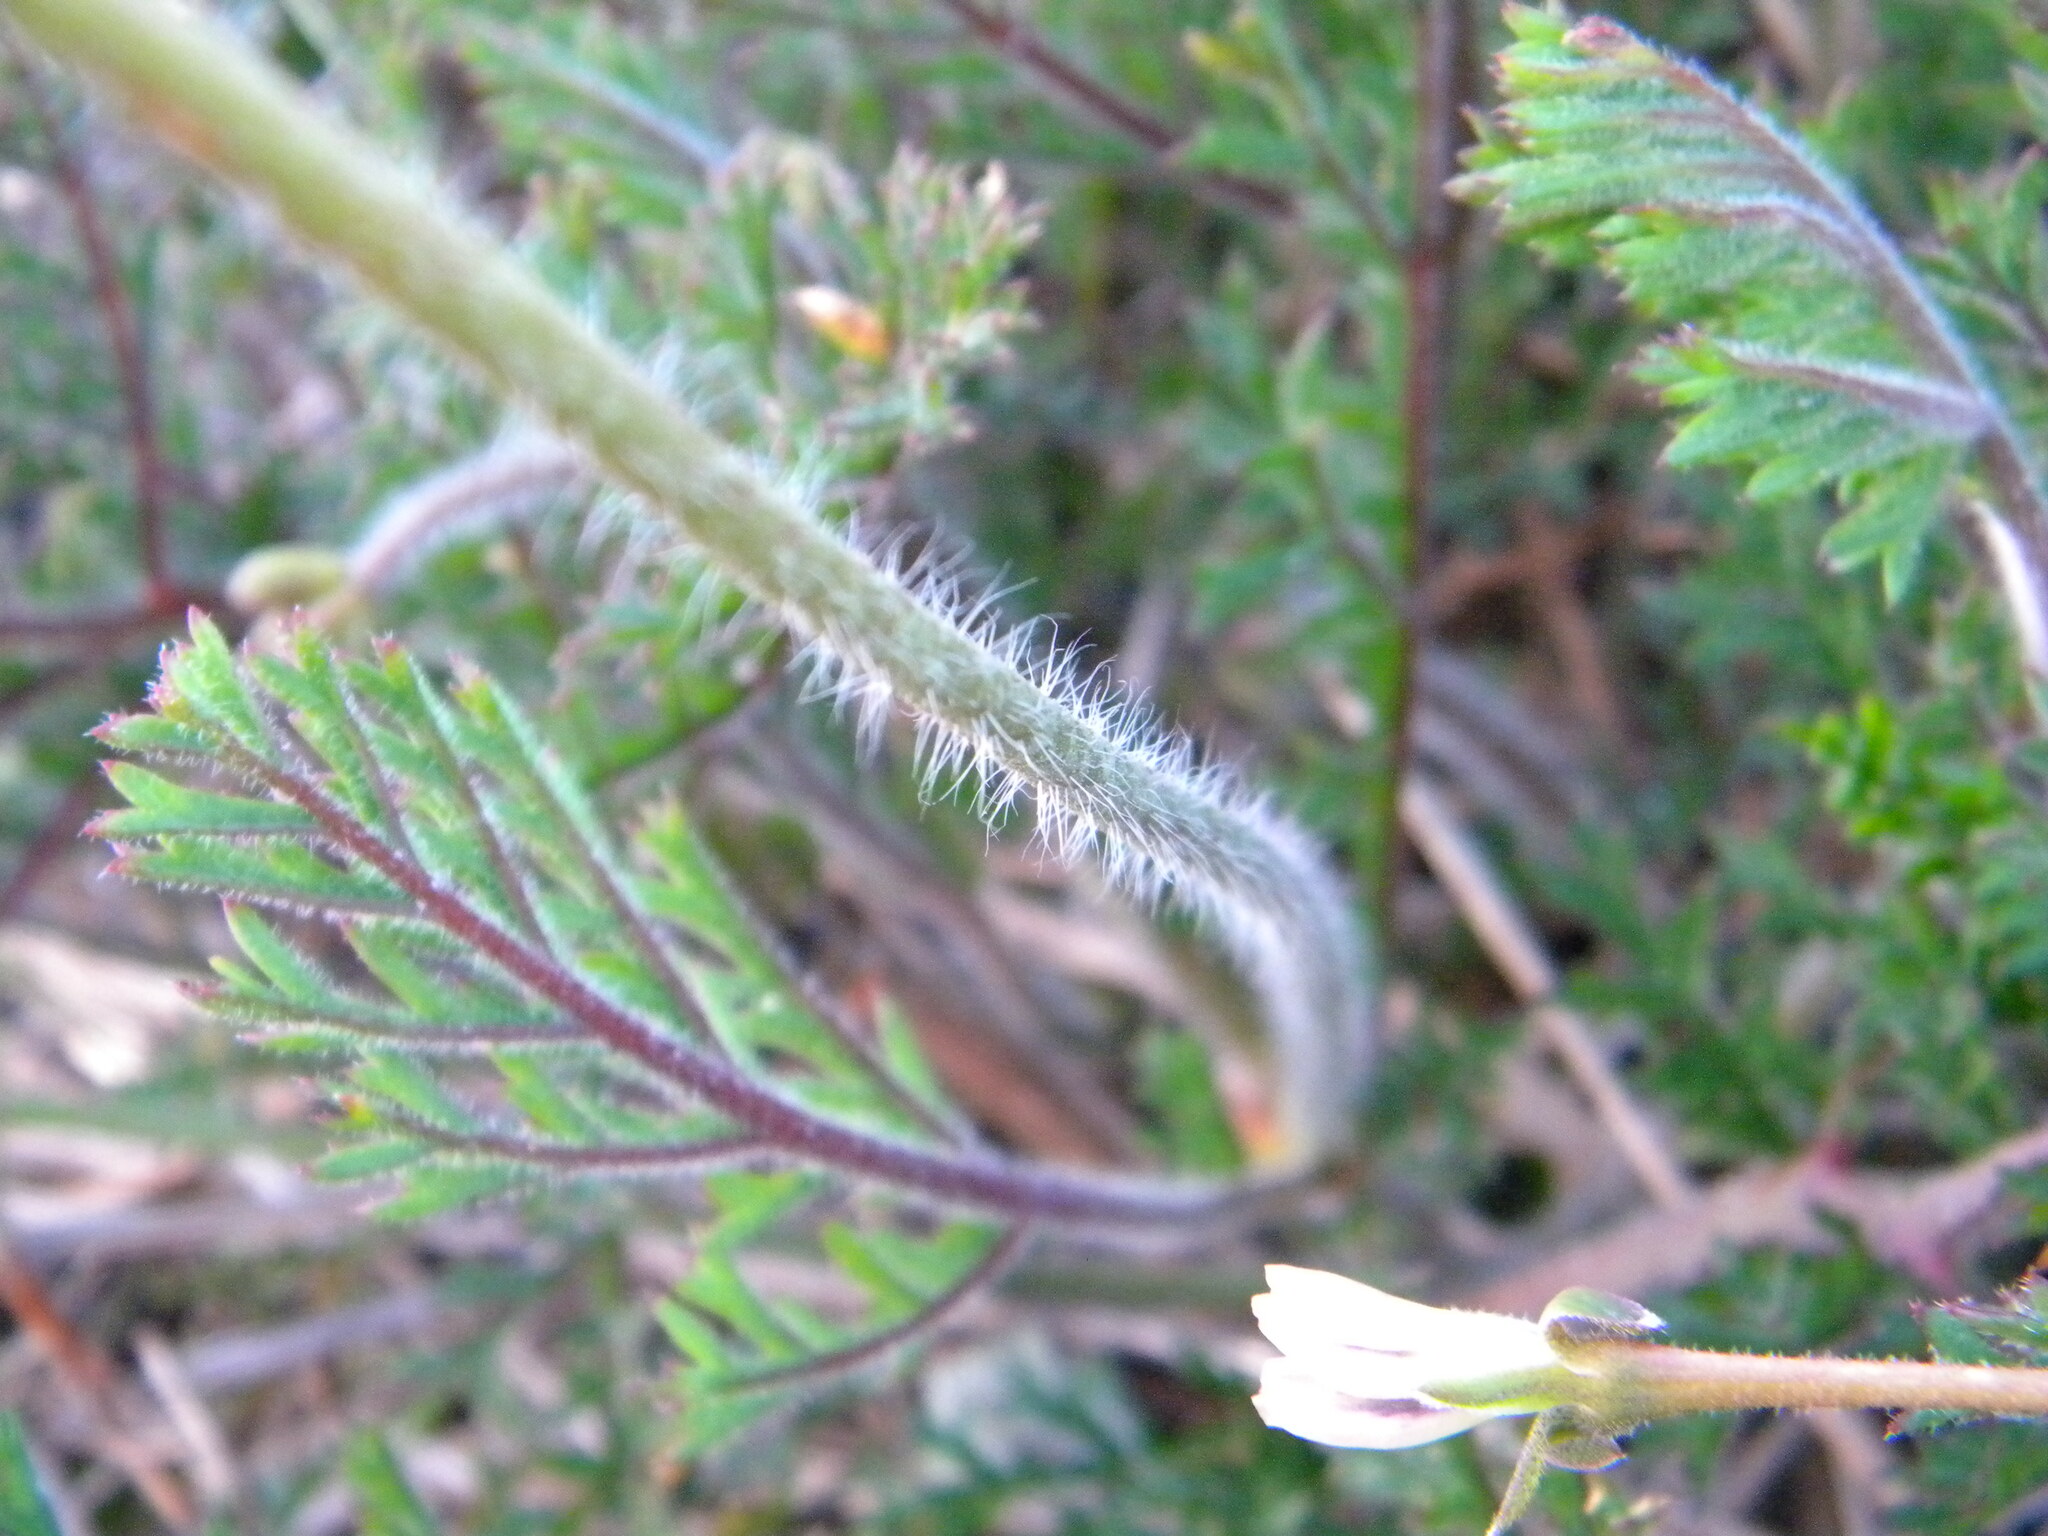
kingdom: Plantae
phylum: Tracheophyta
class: Magnoliopsida
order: Geraniales
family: Geraniaceae
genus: Pelargonium
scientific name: Pelargonium triste
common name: Night-scent pelargonium
